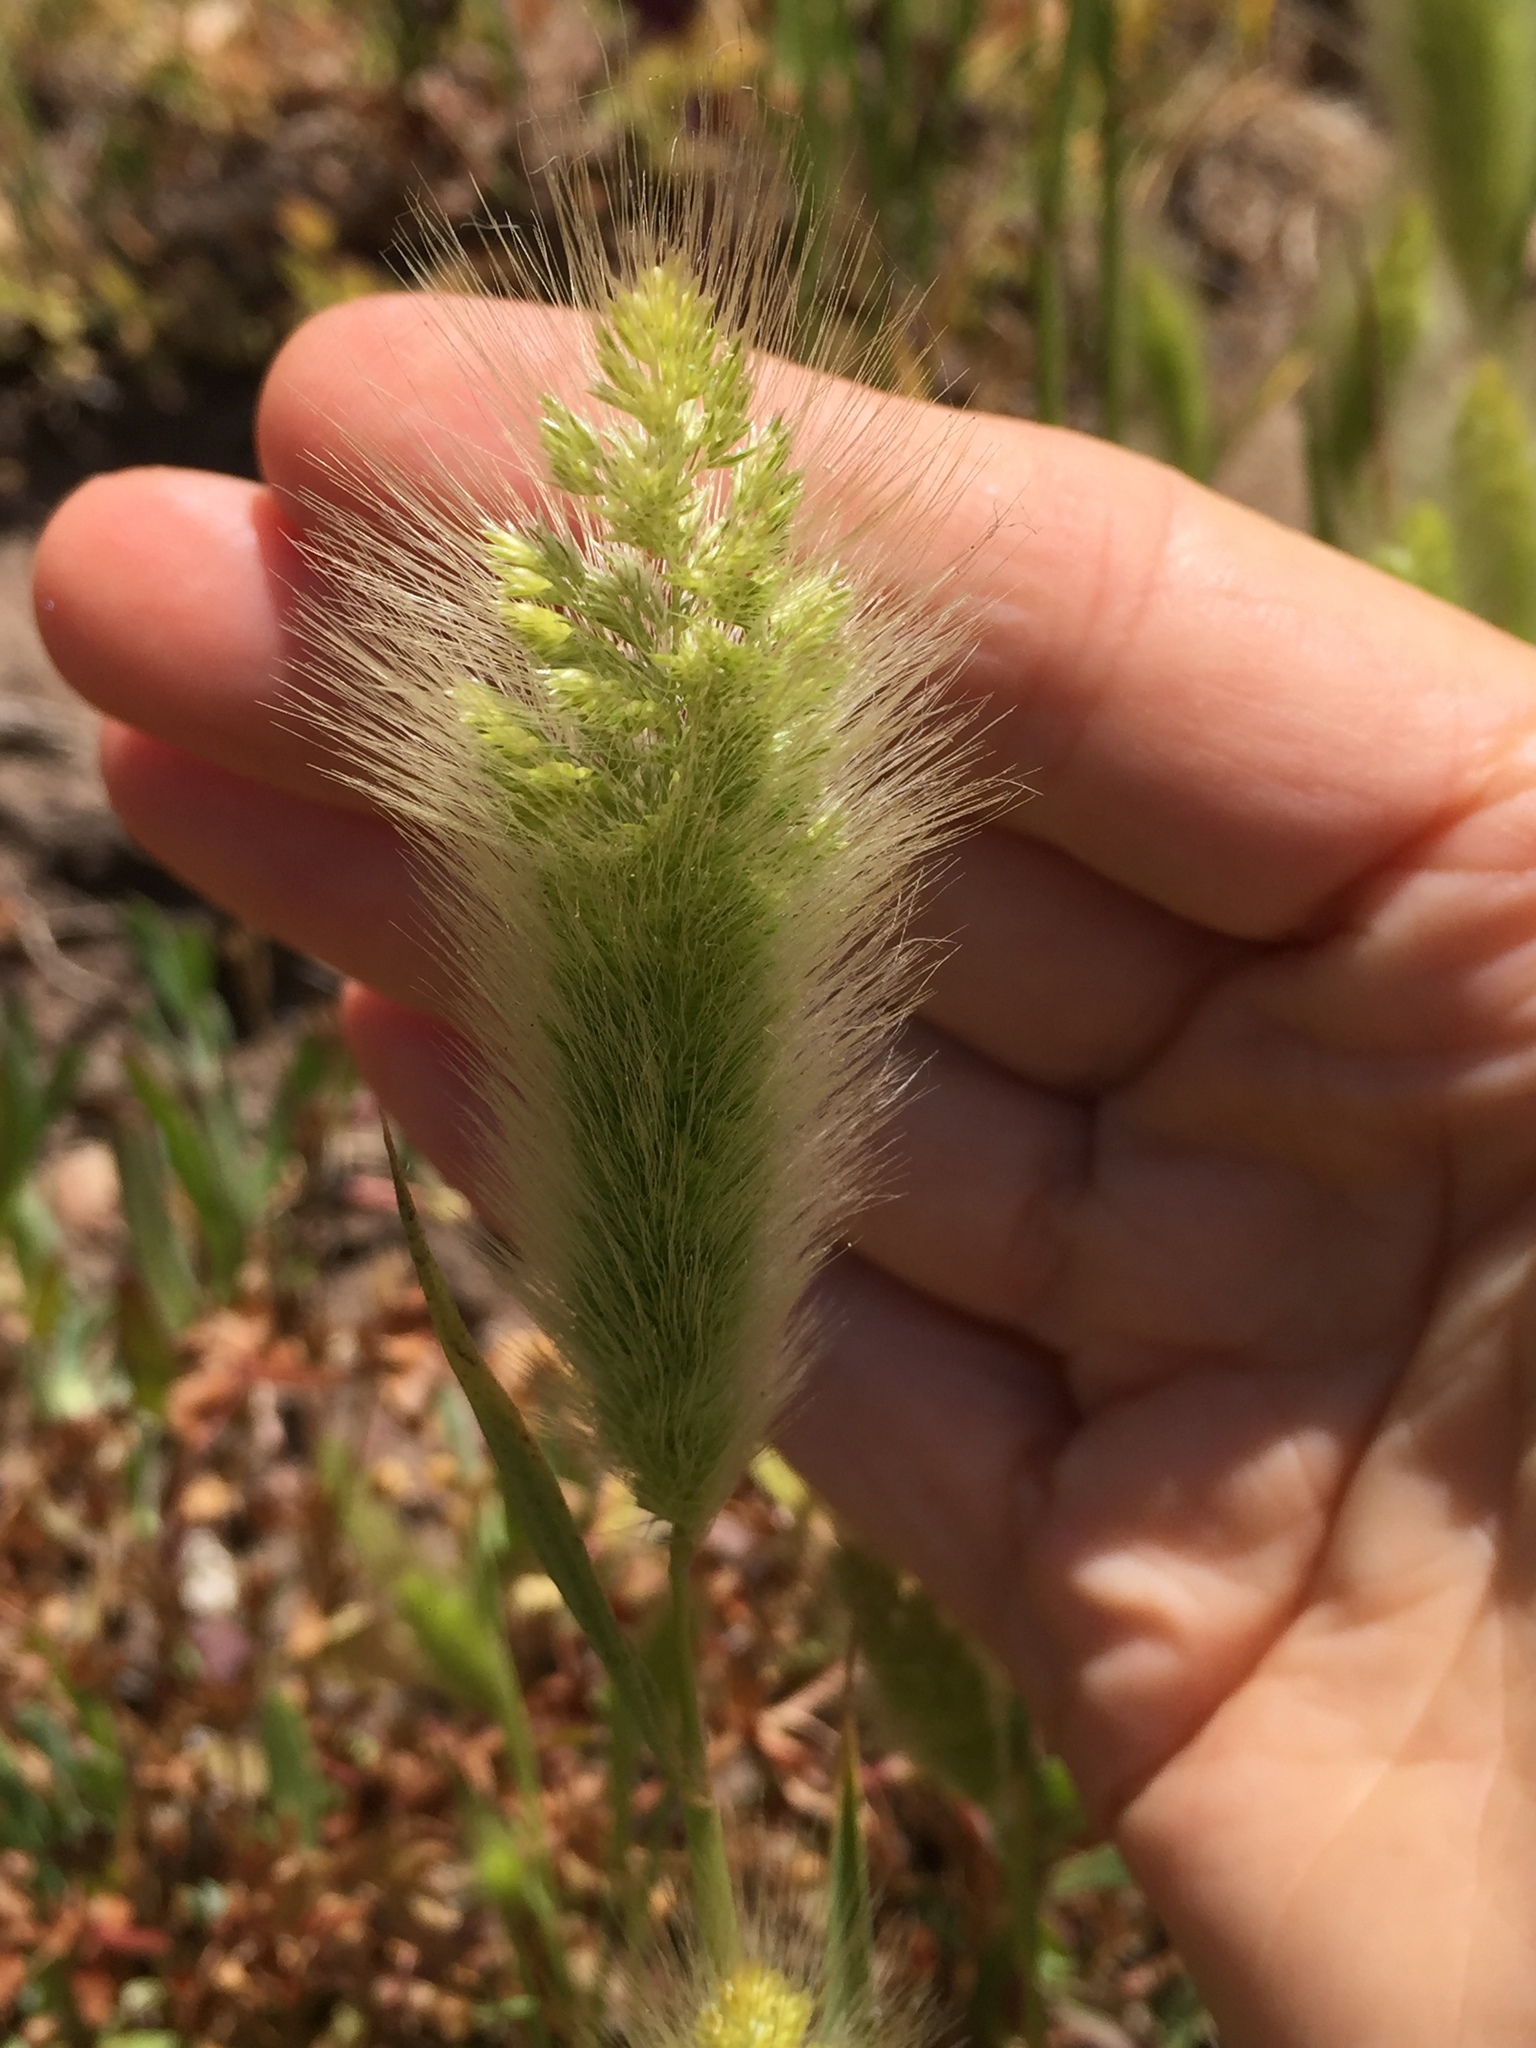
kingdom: Plantae
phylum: Tracheophyta
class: Liliopsida
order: Poales
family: Poaceae
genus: Polypogon
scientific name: Polypogon monspeliensis
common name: Annual rabbitsfoot grass
